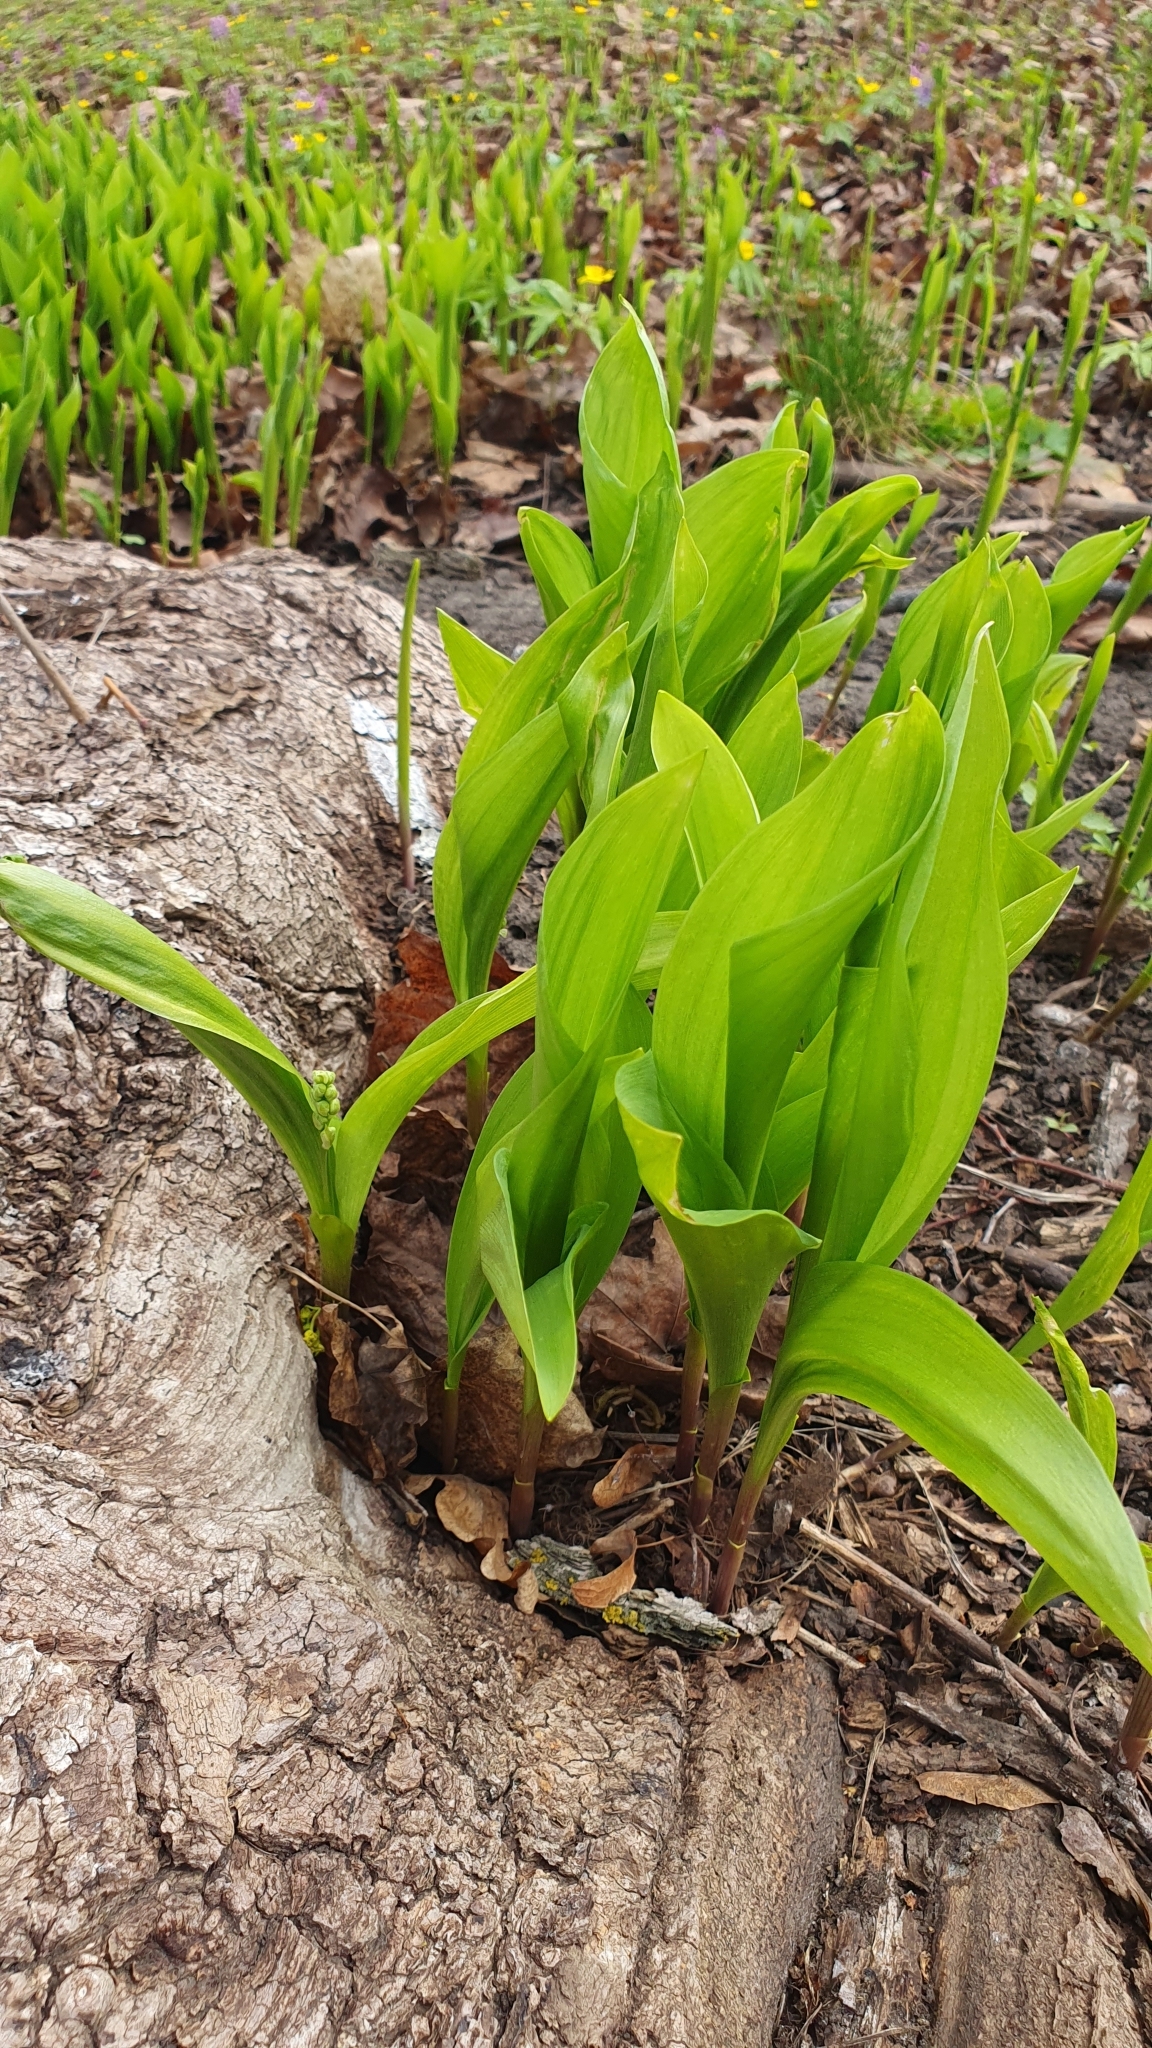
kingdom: Plantae
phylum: Tracheophyta
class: Liliopsida
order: Asparagales
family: Asparagaceae
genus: Convallaria
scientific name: Convallaria majalis
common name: Lily-of-the-valley
